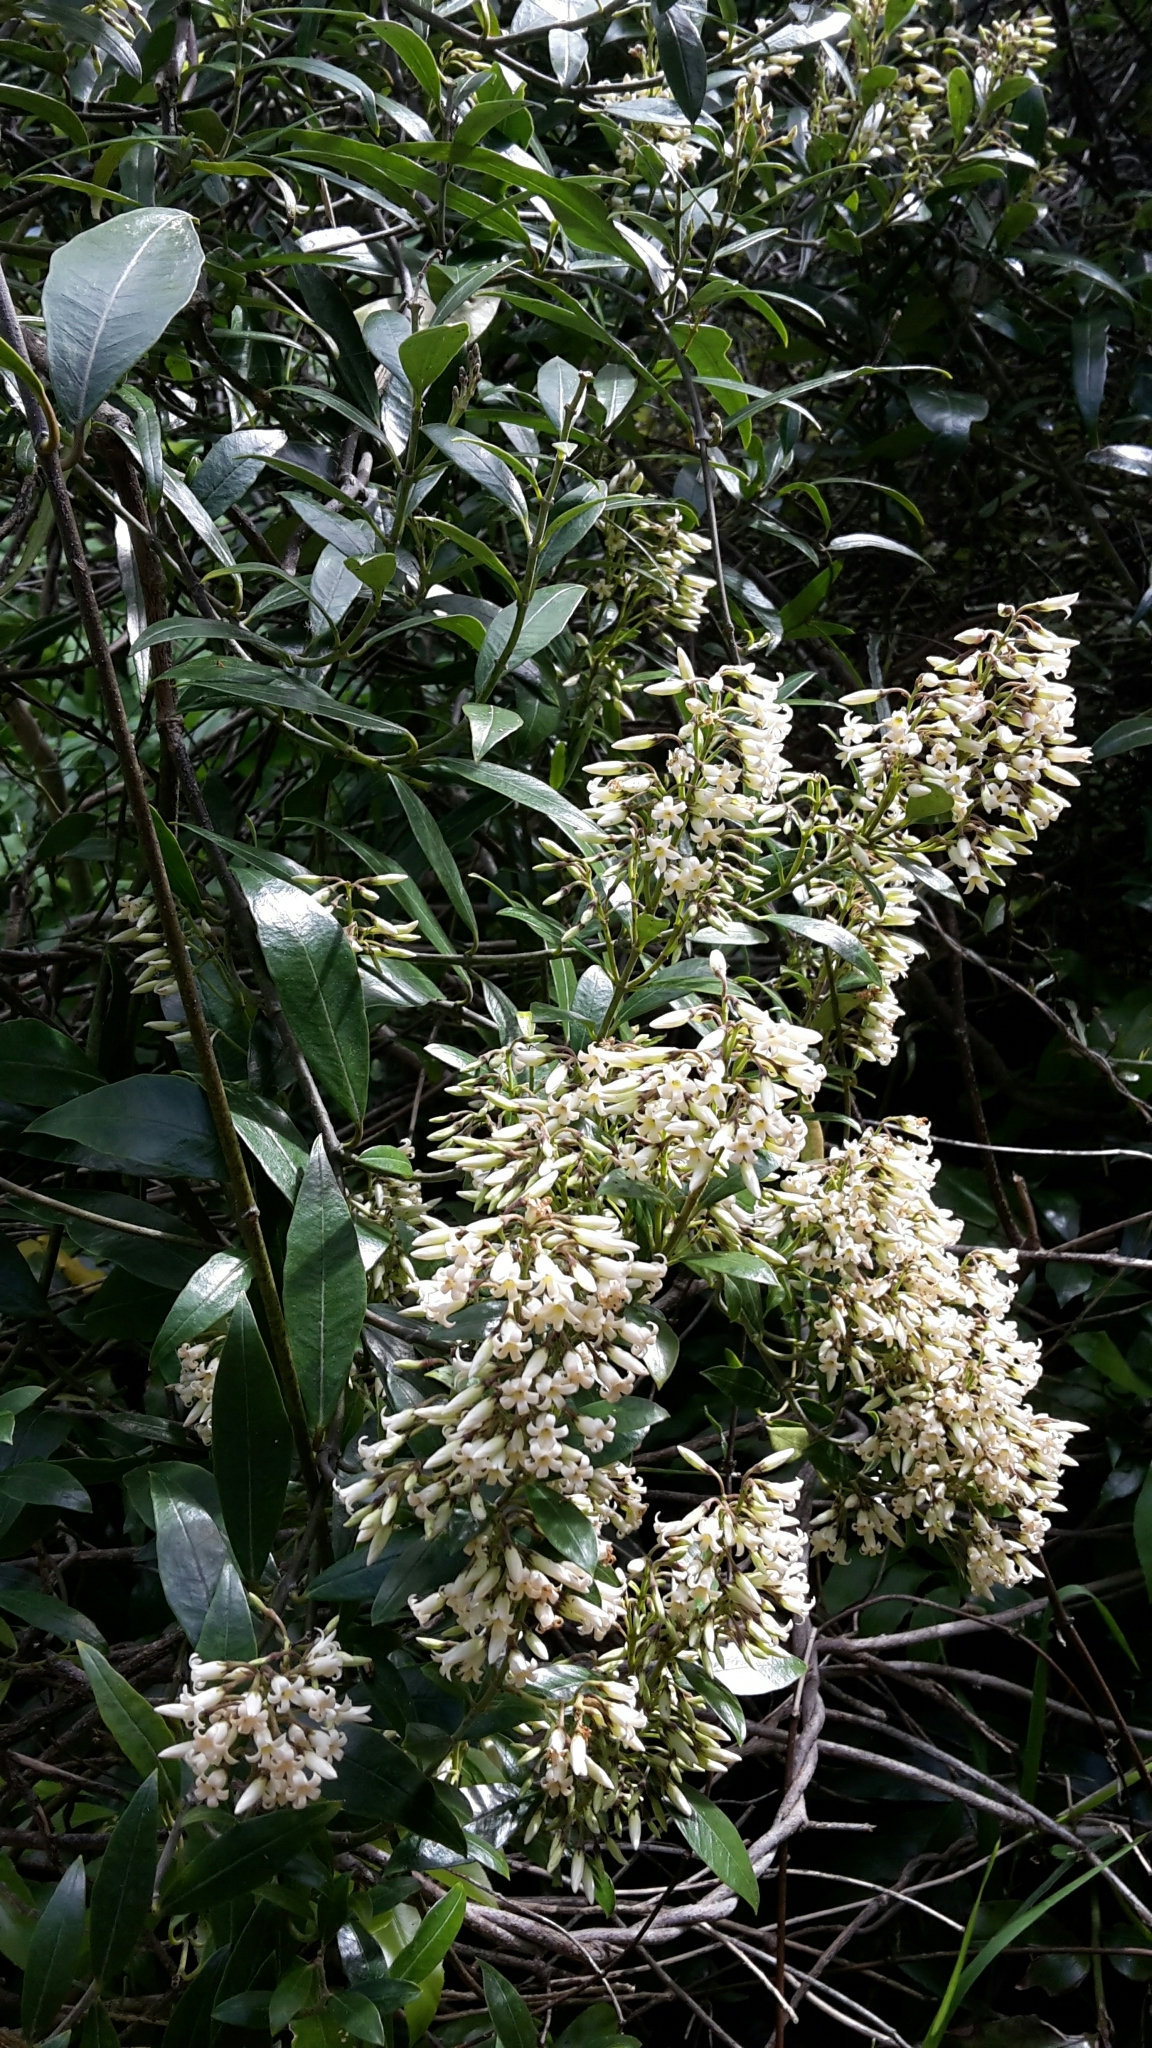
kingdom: Plantae
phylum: Tracheophyta
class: Magnoliopsida
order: Gentianales
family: Apocynaceae
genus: Parsonsia
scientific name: Parsonsia heterophylla
